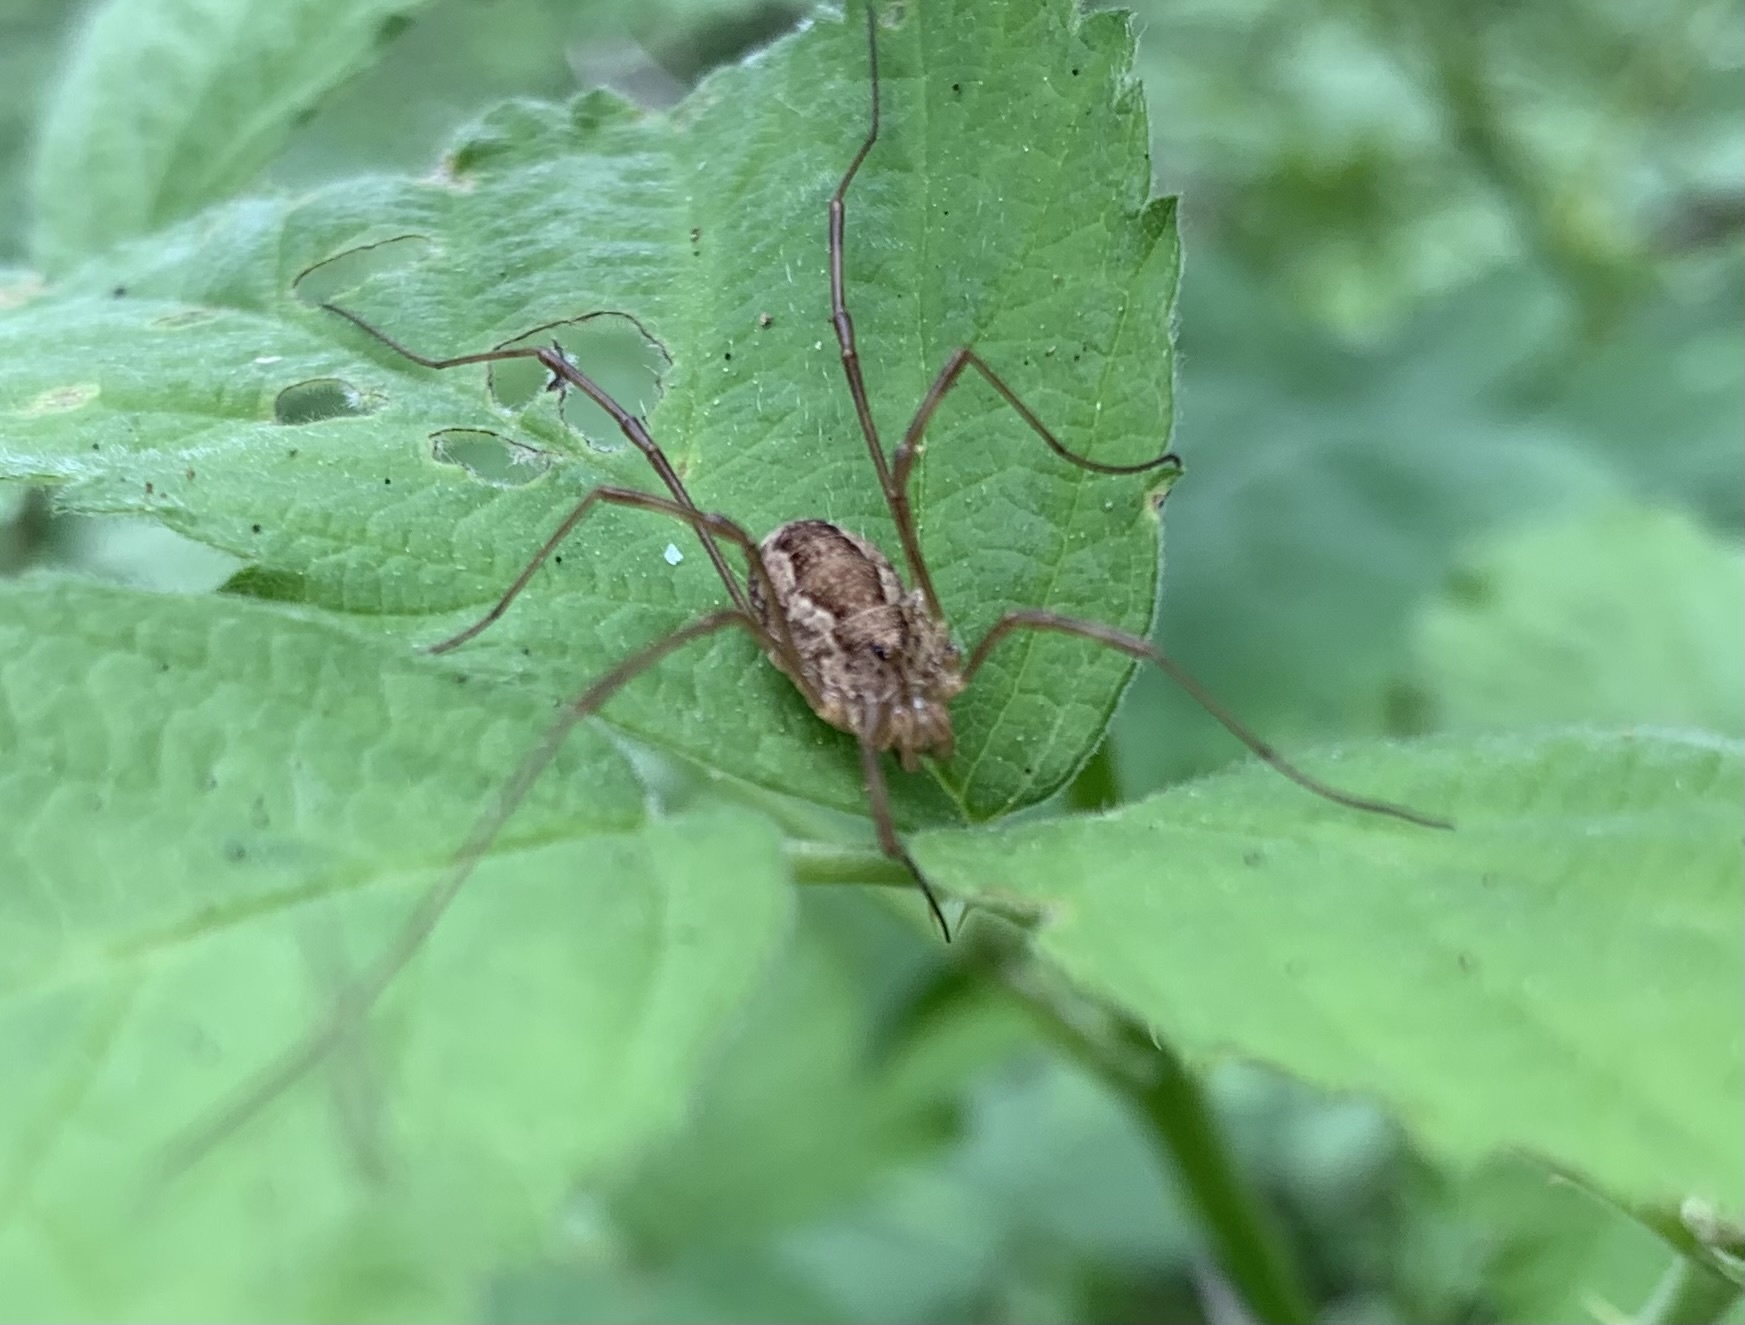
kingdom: Animalia
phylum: Arthropoda
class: Arachnida
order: Opiliones
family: Phalangiidae
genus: Rilaena
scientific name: Rilaena triangularis
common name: Spring harvestman
